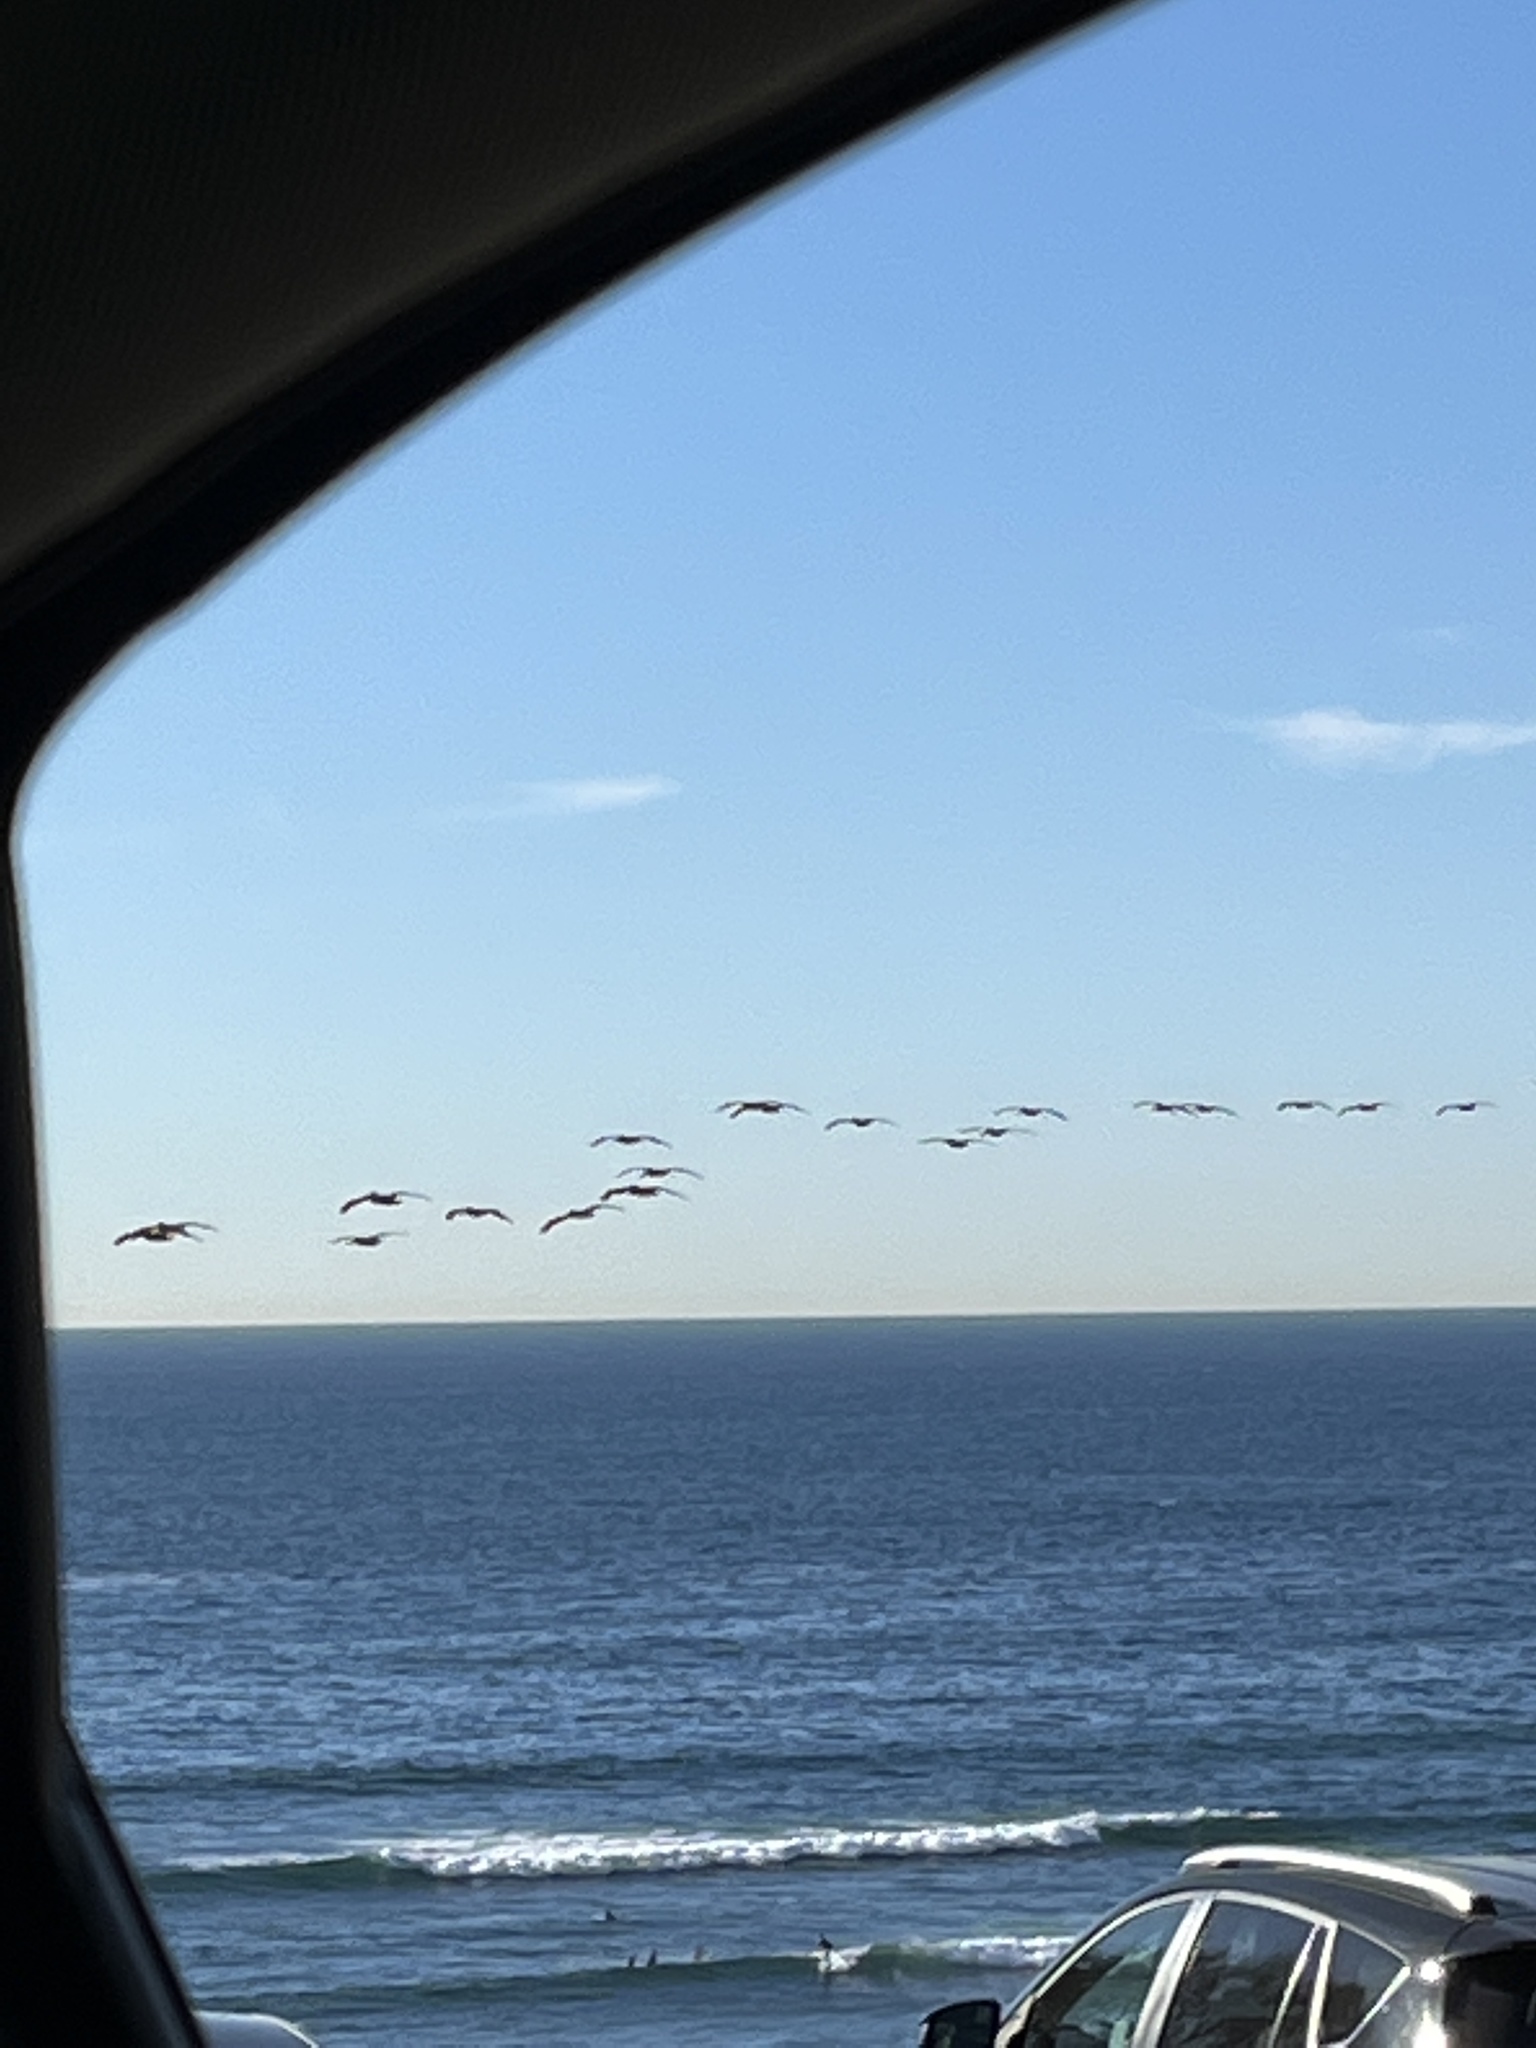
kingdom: Animalia
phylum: Chordata
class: Aves
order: Pelecaniformes
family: Pelecanidae
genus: Pelecanus
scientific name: Pelecanus occidentalis
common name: Brown pelican
